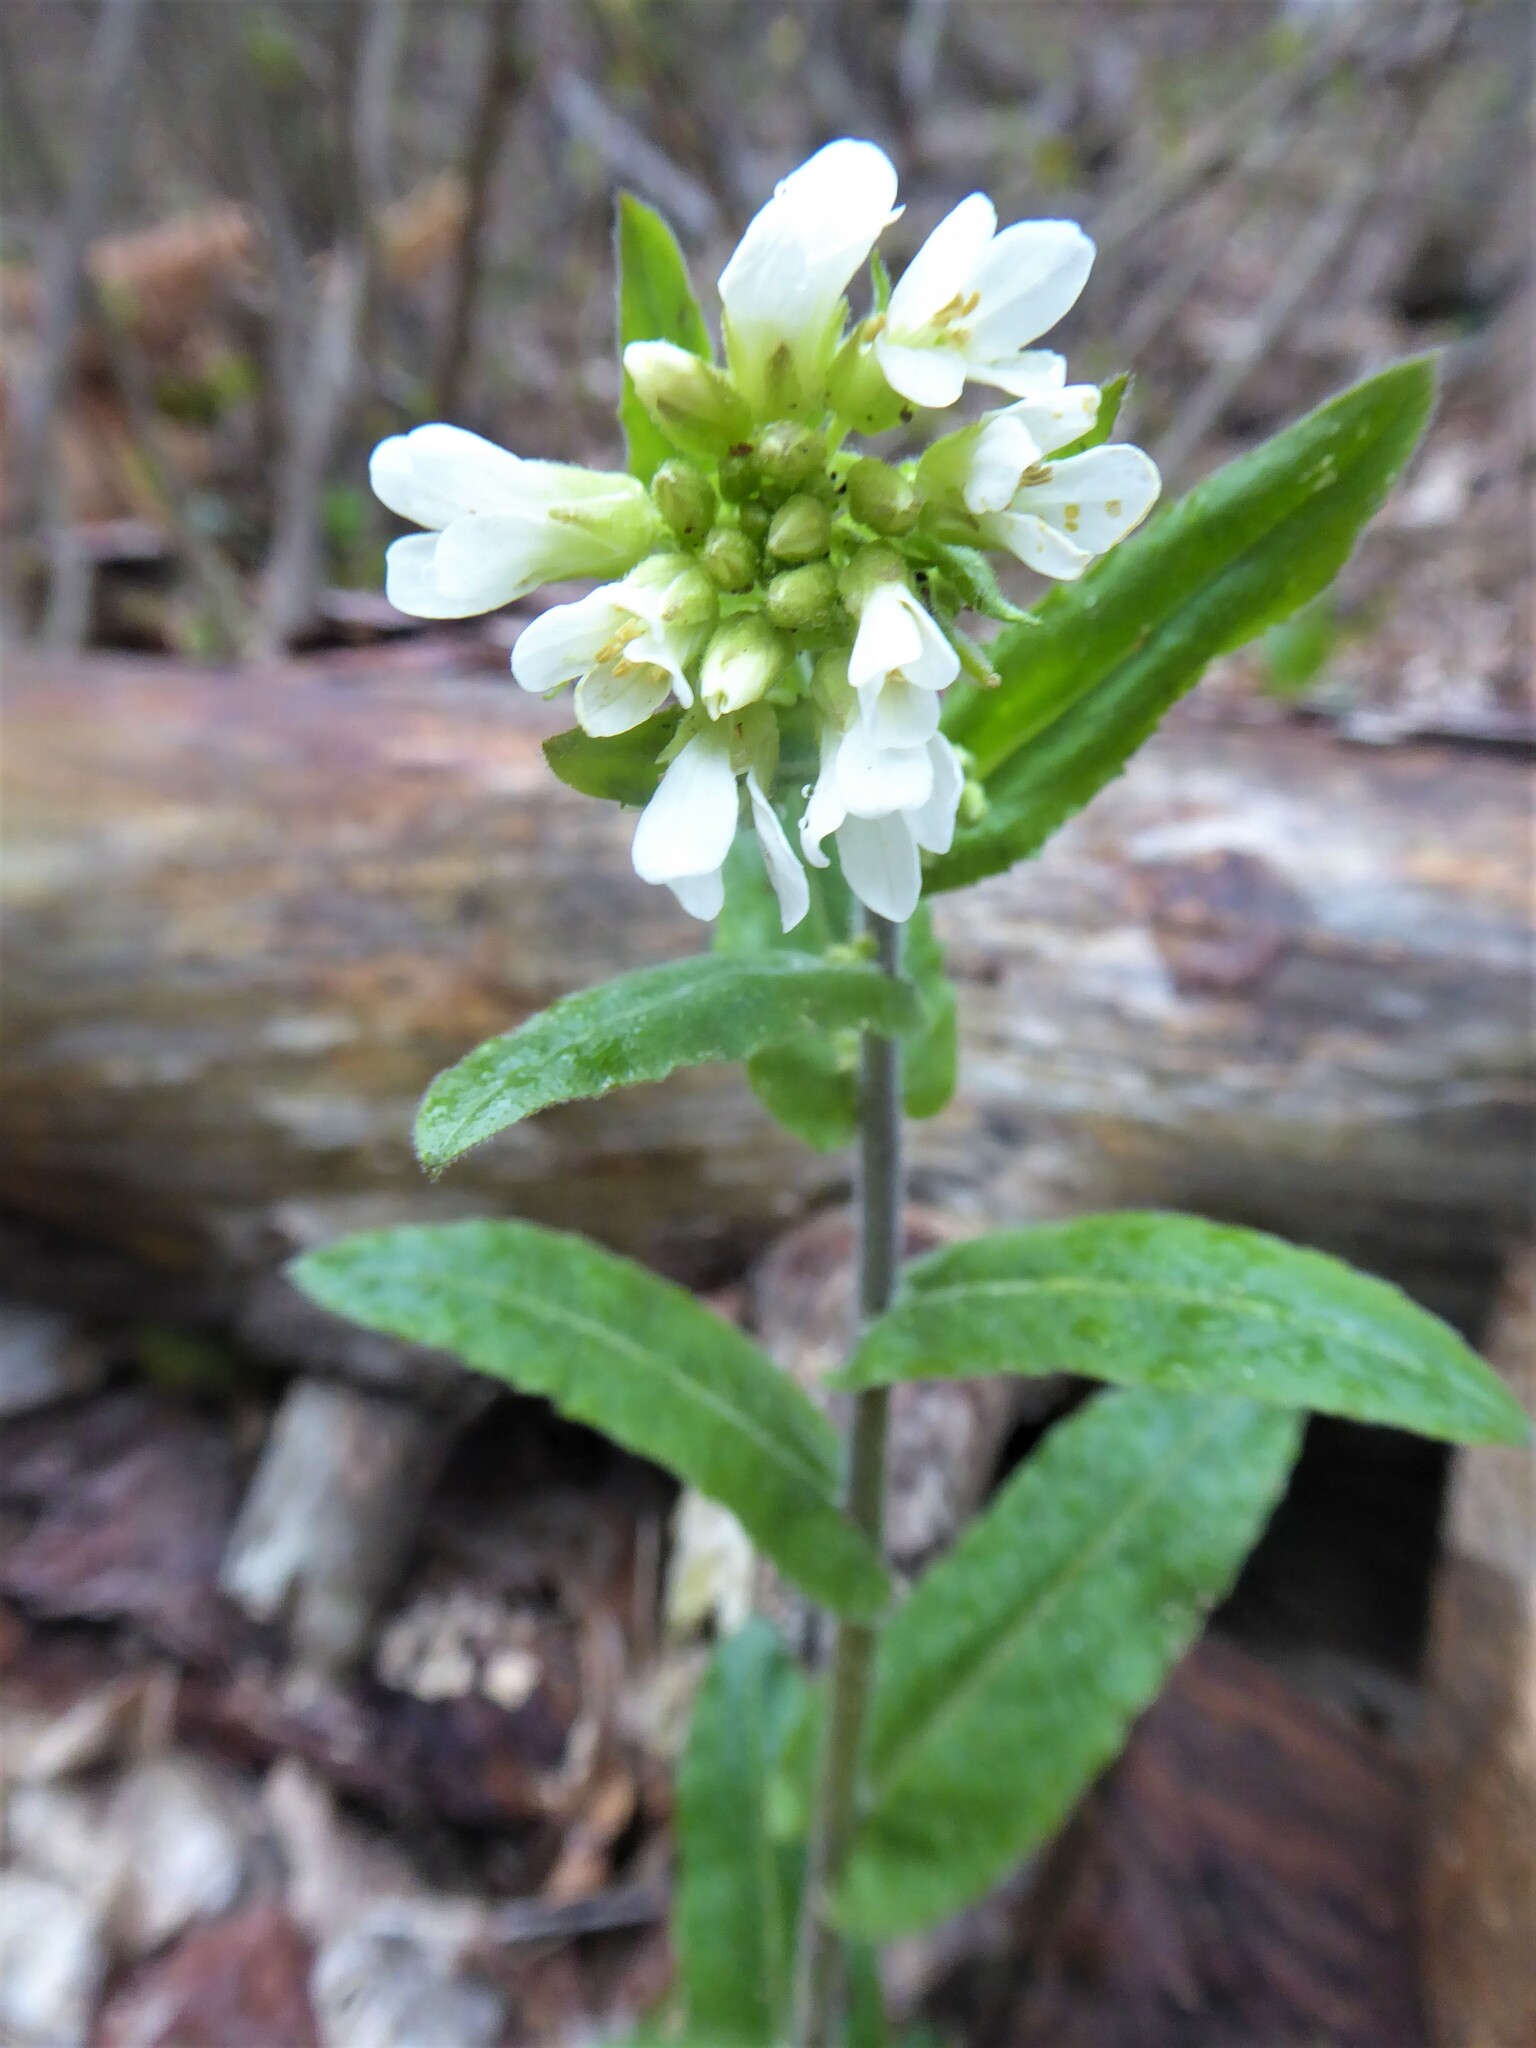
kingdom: Plantae
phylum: Tracheophyta
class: Magnoliopsida
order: Brassicales
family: Brassicaceae
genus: Pseudoturritis
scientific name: Pseudoturritis turrita
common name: Tower cress
